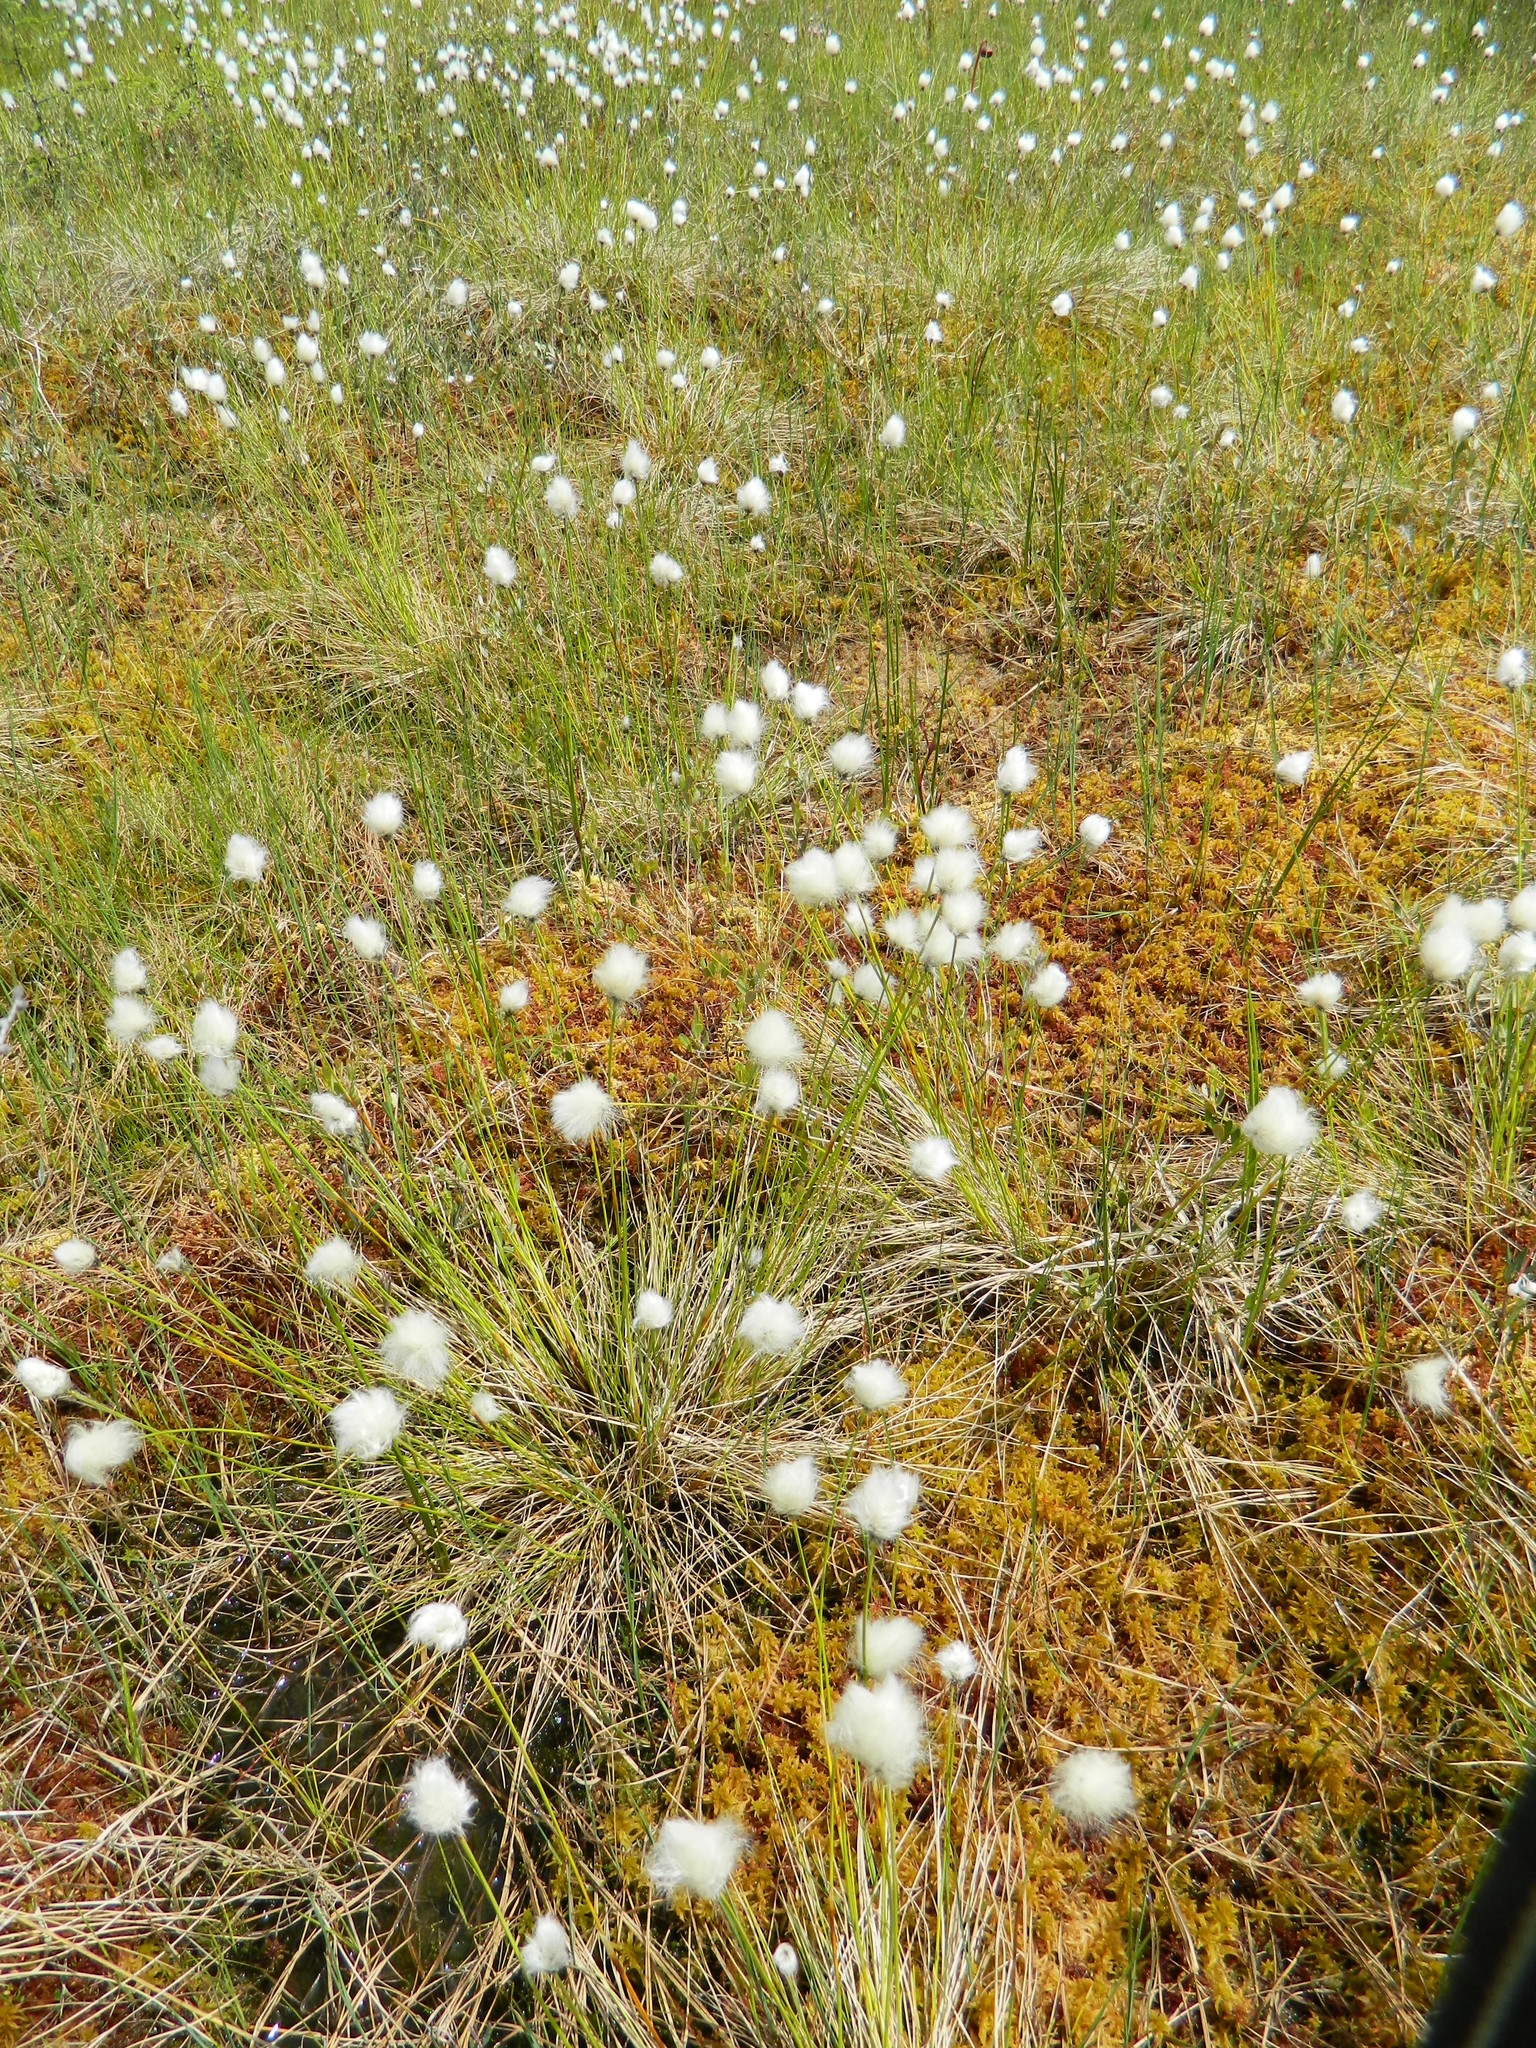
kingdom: Plantae
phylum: Tracheophyta
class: Liliopsida
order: Poales
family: Cyperaceae
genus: Eriophorum
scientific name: Eriophorum vaginatum
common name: Hare's-tail cottongrass
